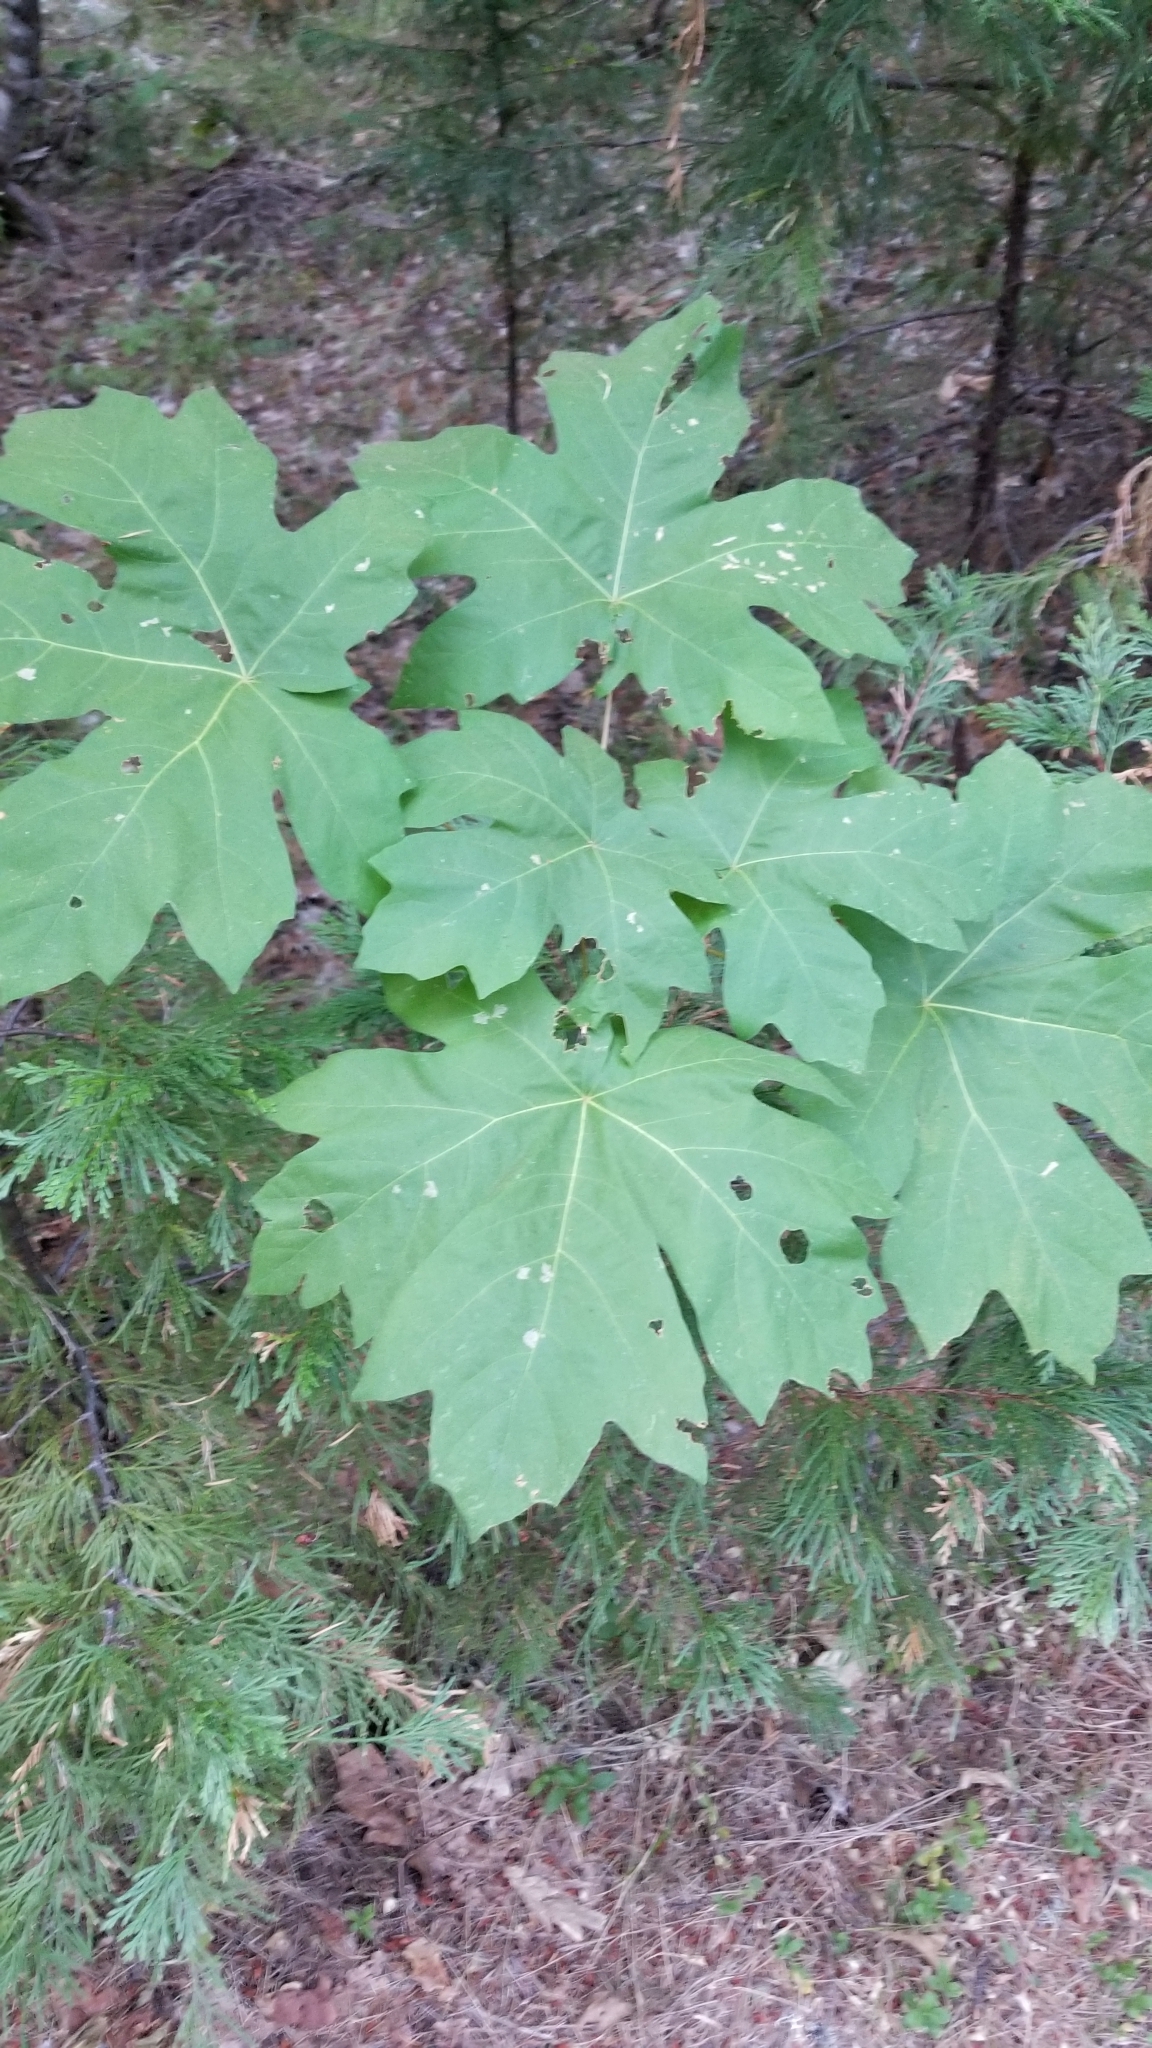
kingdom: Plantae
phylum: Tracheophyta
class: Magnoliopsida
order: Sapindales
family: Sapindaceae
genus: Acer
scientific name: Acer macrophyllum
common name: Oregon maple
